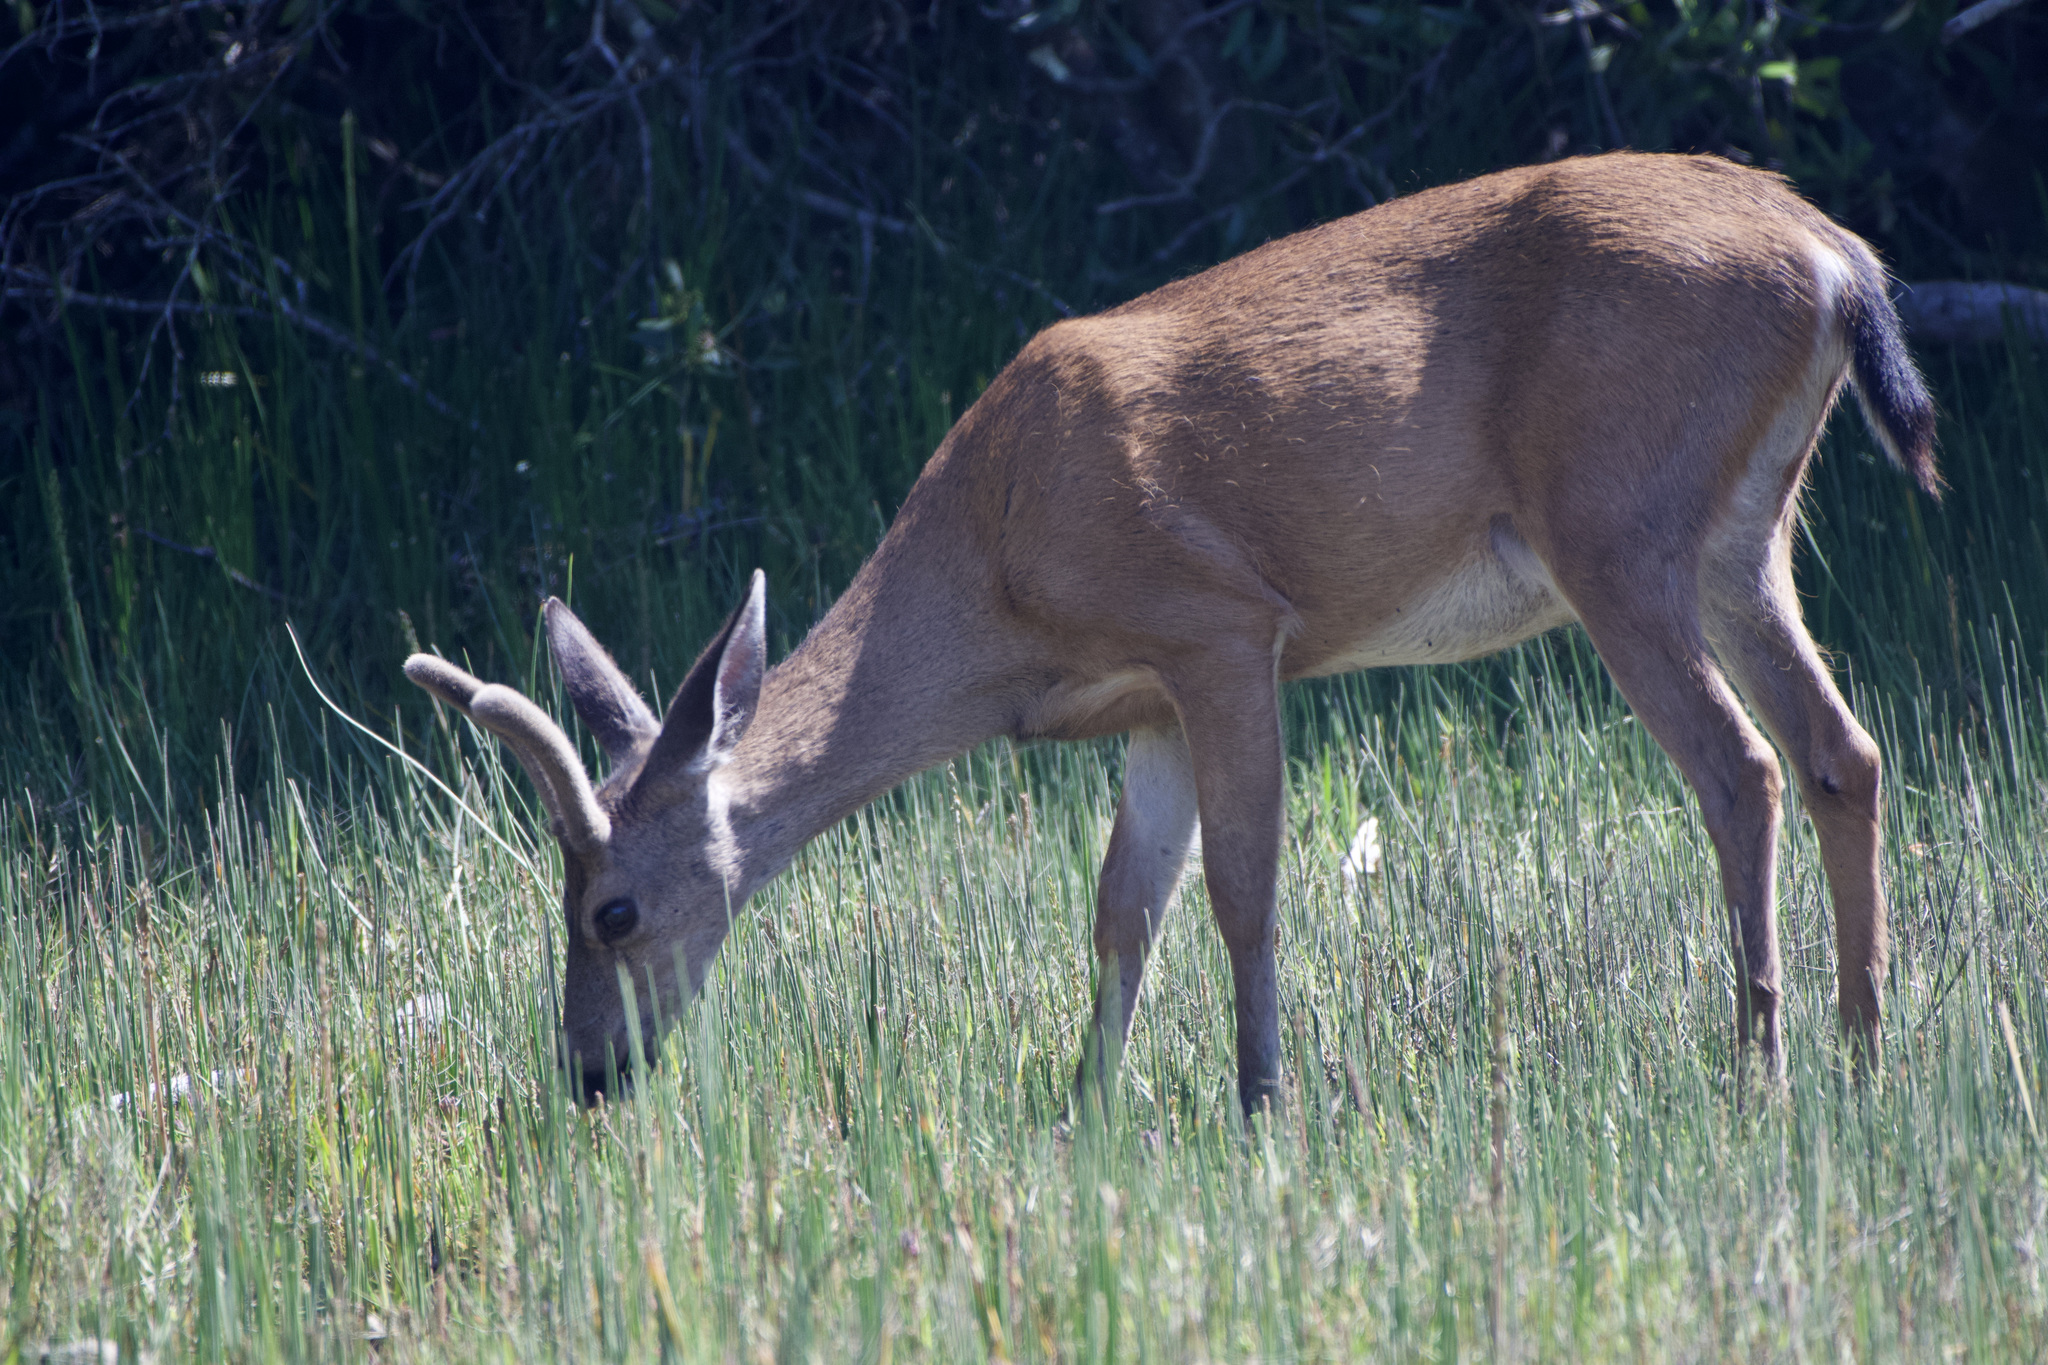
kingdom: Animalia
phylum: Chordata
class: Mammalia
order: Artiodactyla
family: Cervidae
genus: Odocoileus
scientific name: Odocoileus hemionus
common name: Mule deer
